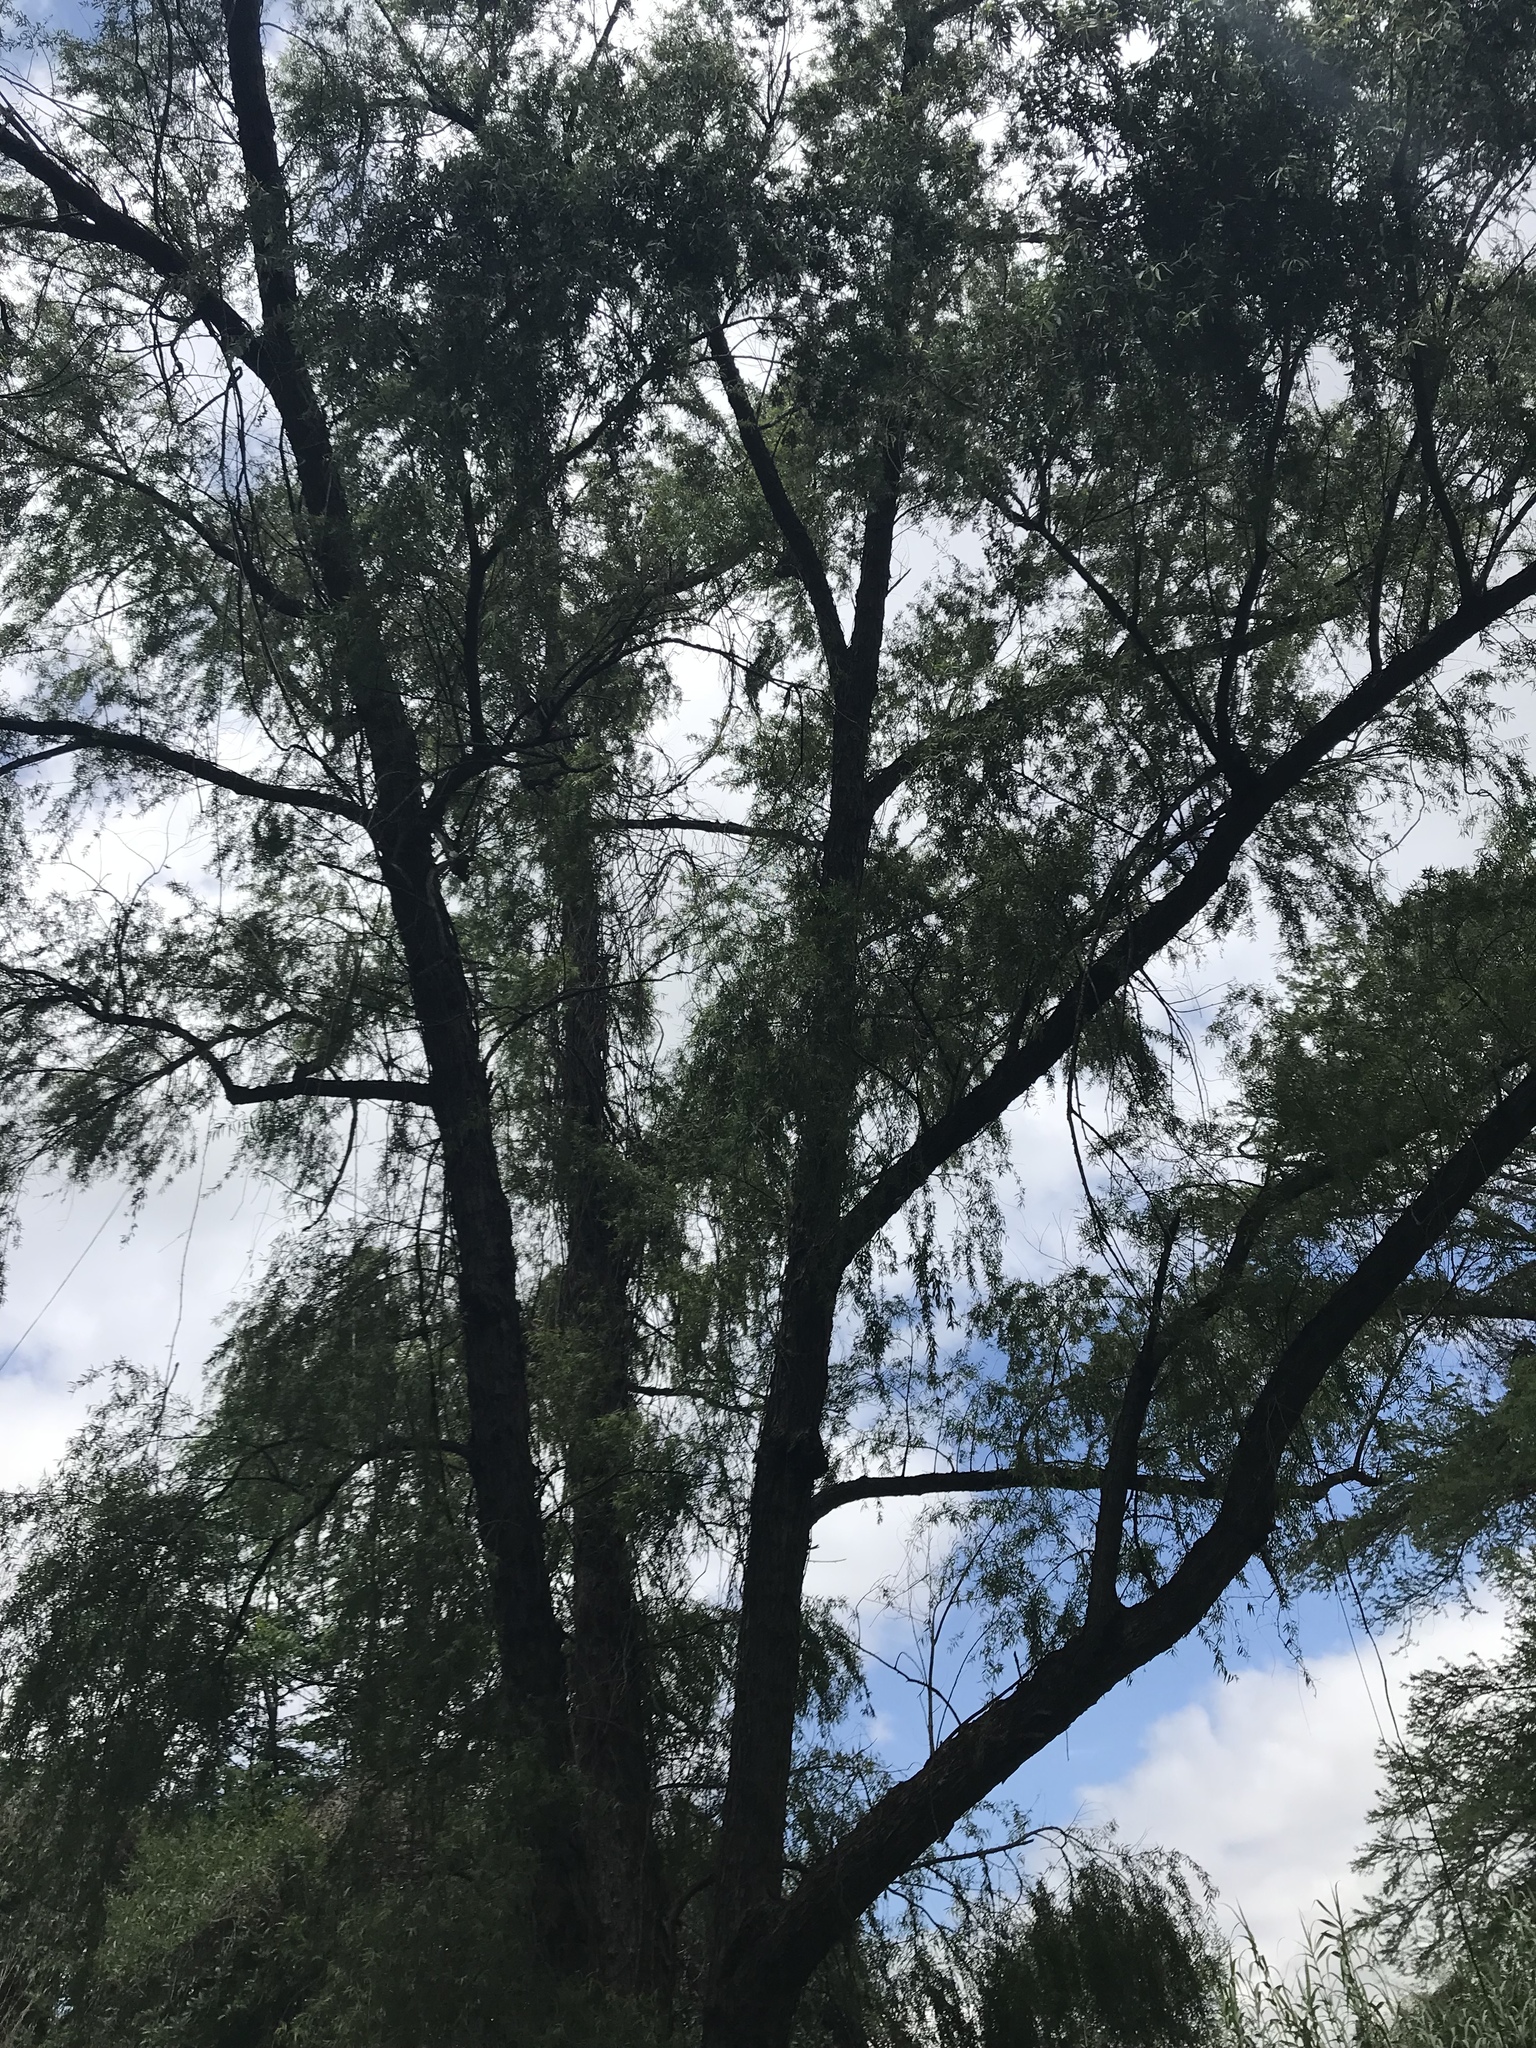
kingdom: Plantae
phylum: Tracheophyta
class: Magnoliopsida
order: Malpighiales
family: Salicaceae
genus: Salix
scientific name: Salix nigra
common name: Black willow
